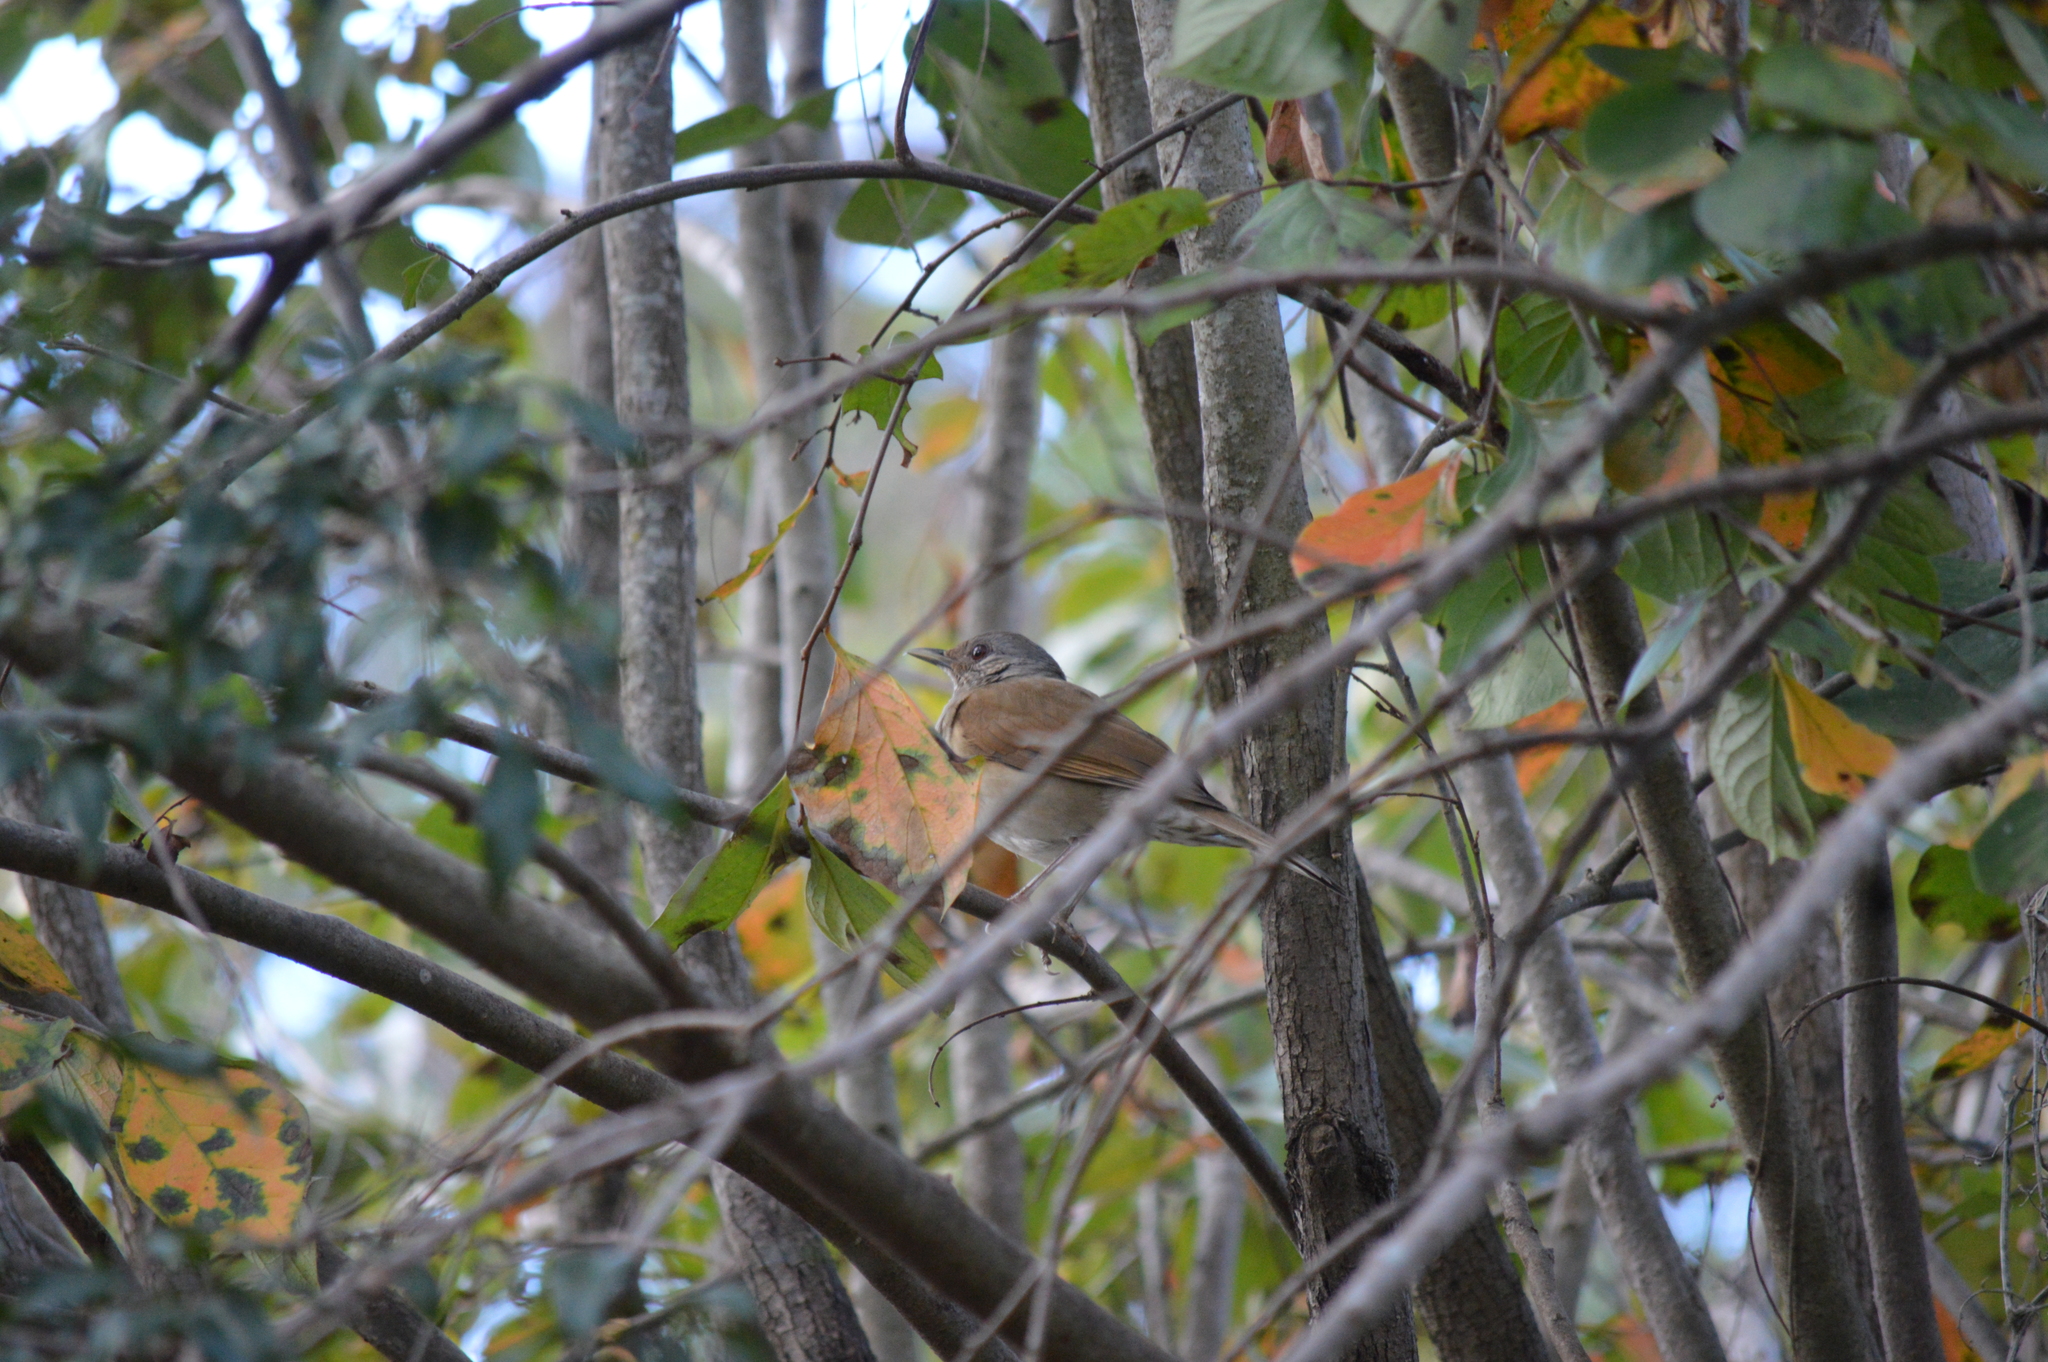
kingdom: Animalia
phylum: Chordata
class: Aves
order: Passeriformes
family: Turdidae
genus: Turdus
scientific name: Turdus leucomelas
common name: Pale-breasted thrush
